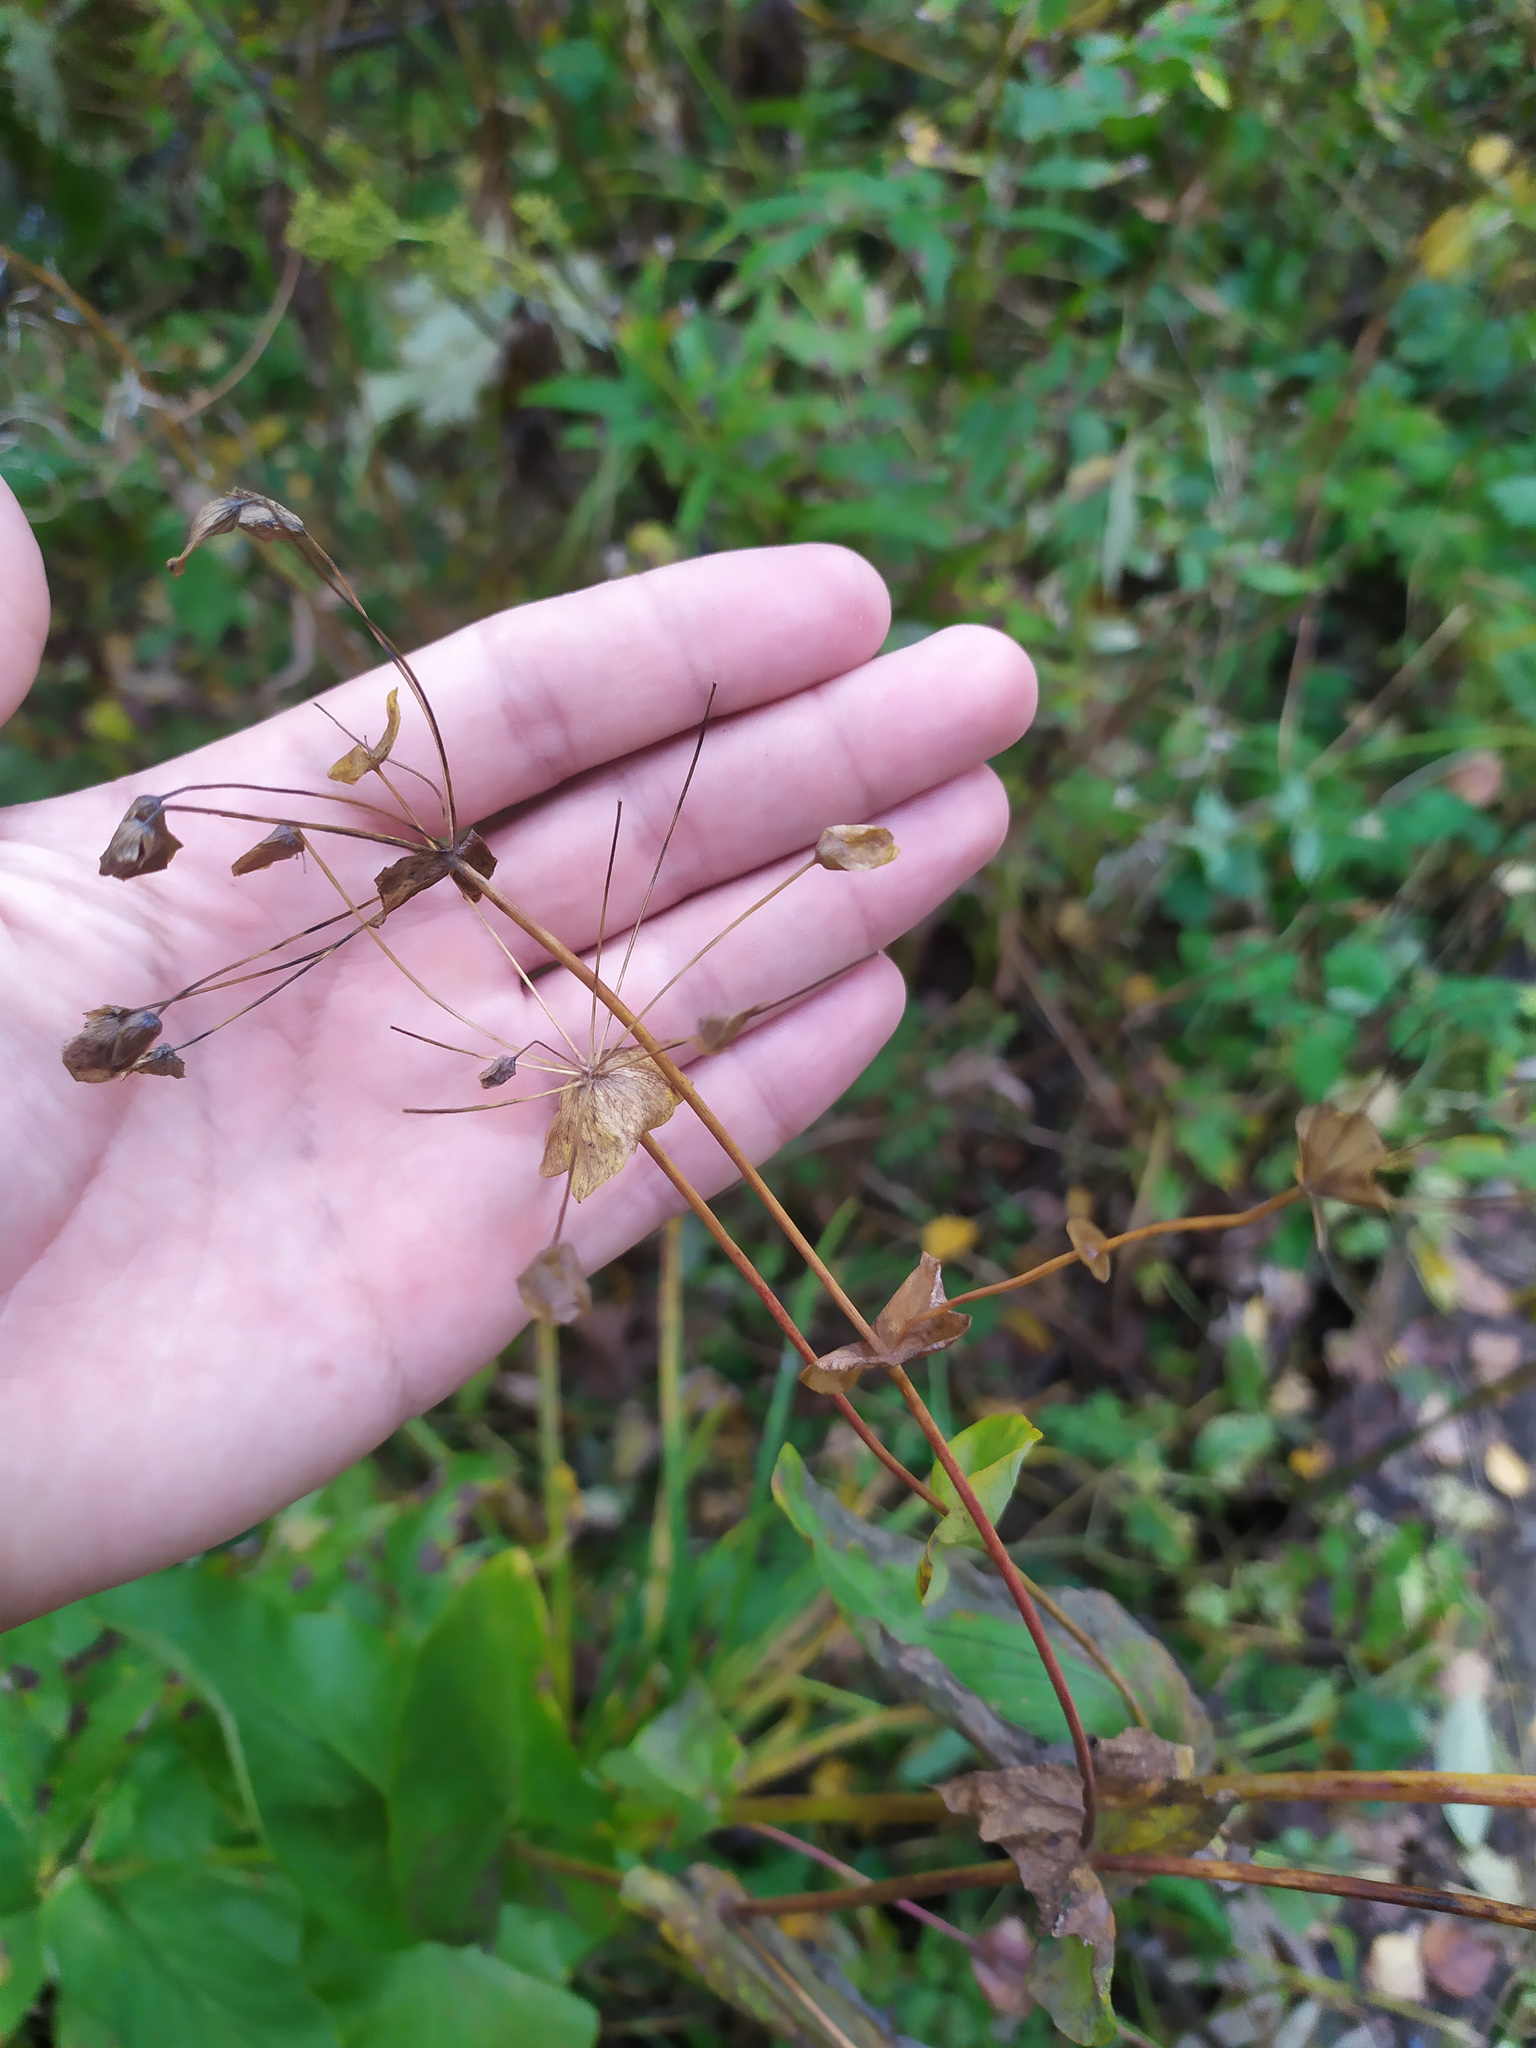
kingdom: Plantae
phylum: Tracheophyta
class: Magnoliopsida
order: Apiales
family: Apiaceae
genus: Bupleurum
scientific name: Bupleurum aureum
